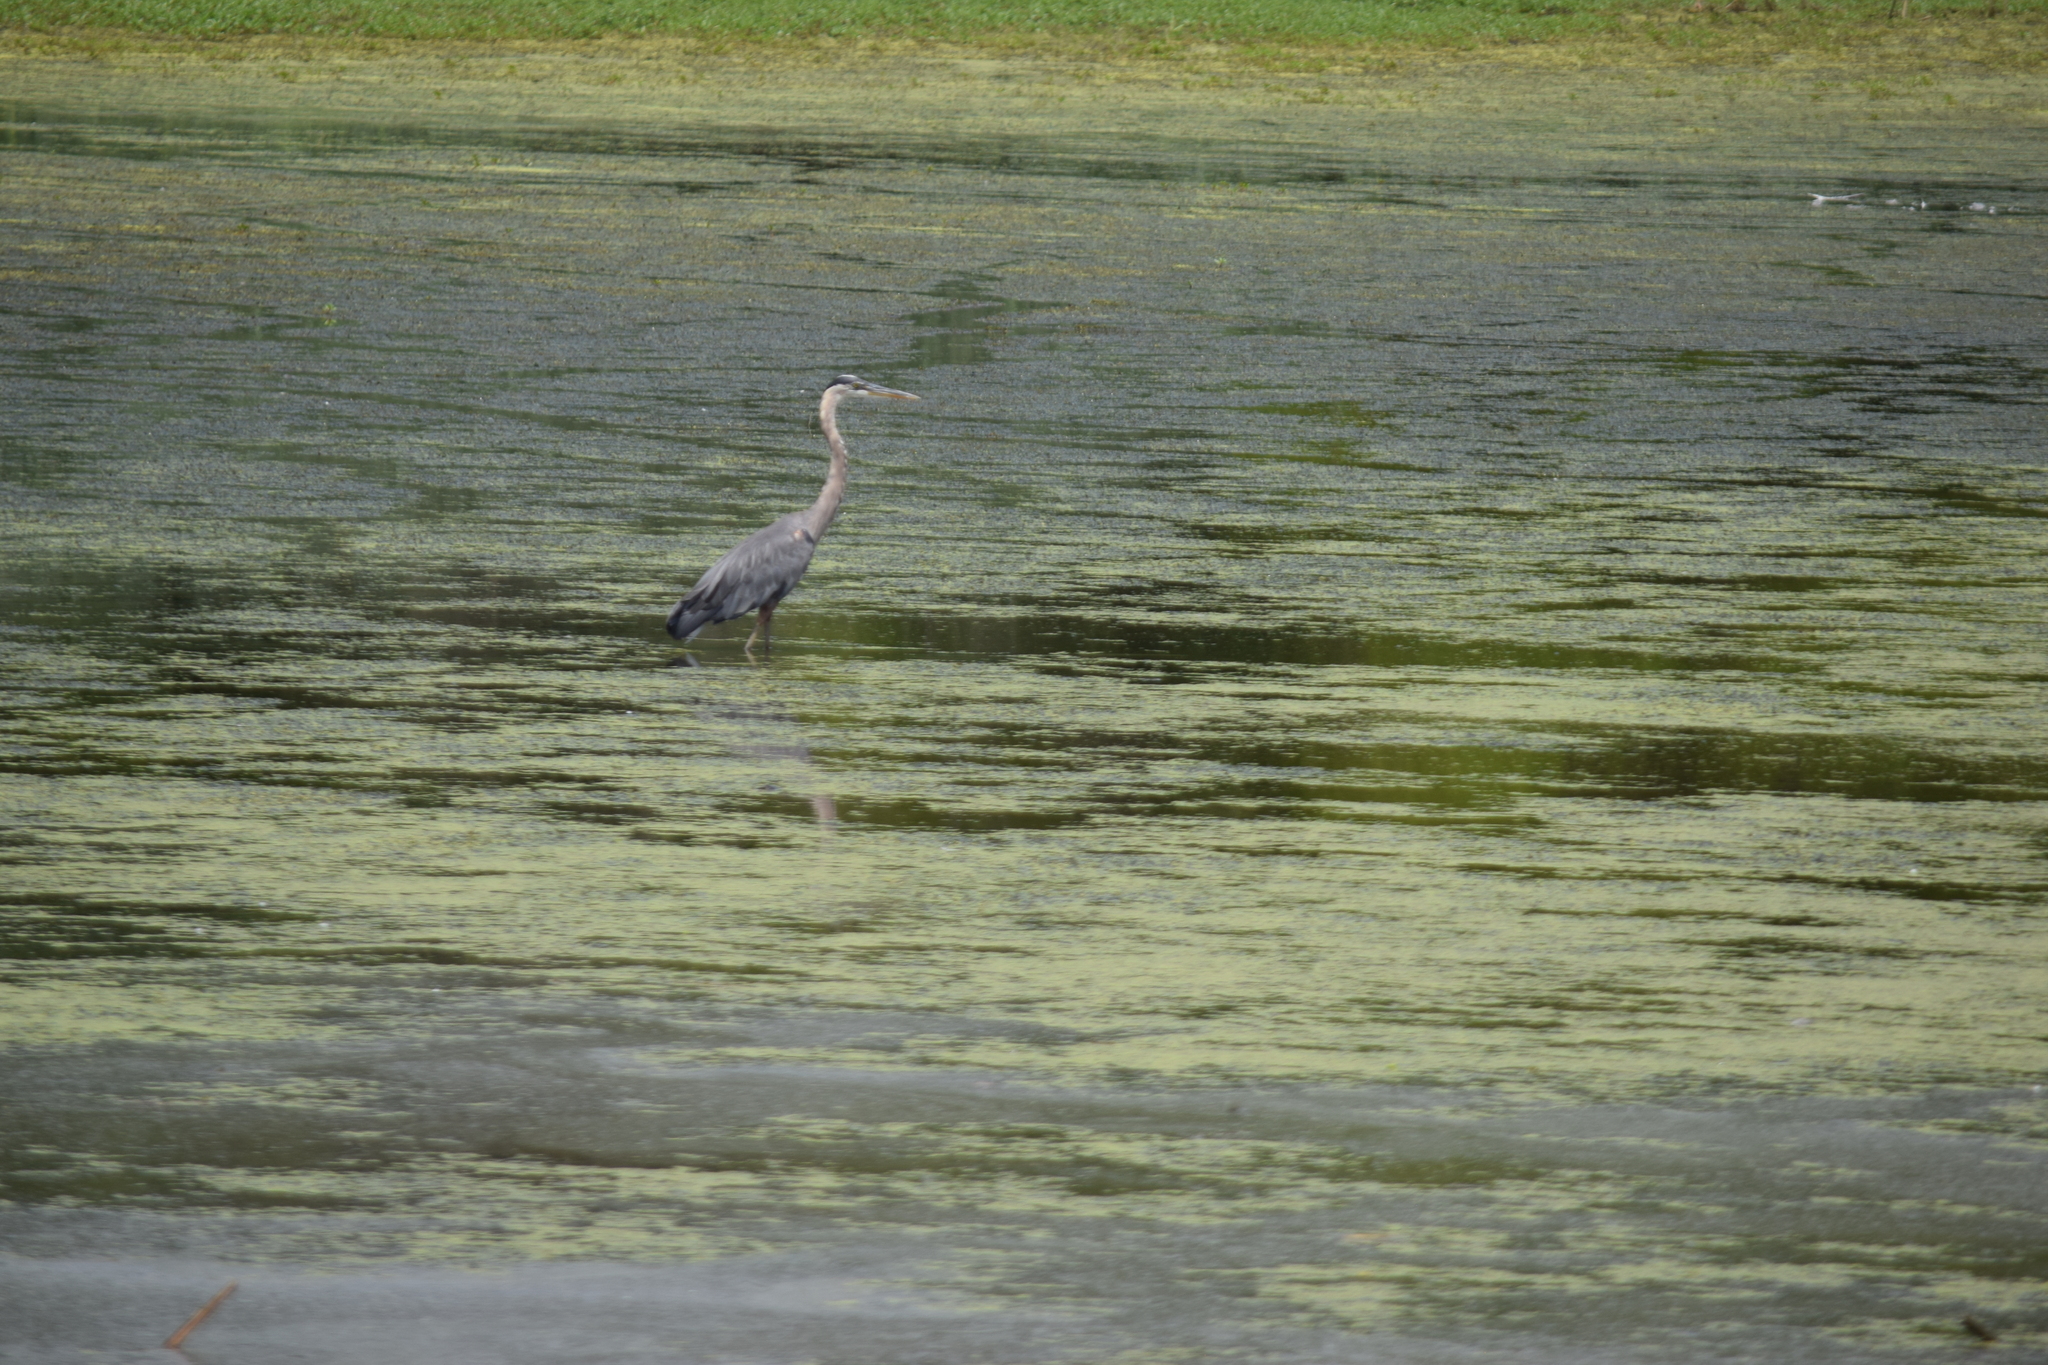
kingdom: Animalia
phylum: Chordata
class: Aves
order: Pelecaniformes
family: Ardeidae
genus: Ardea
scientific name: Ardea herodias
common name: Great blue heron
